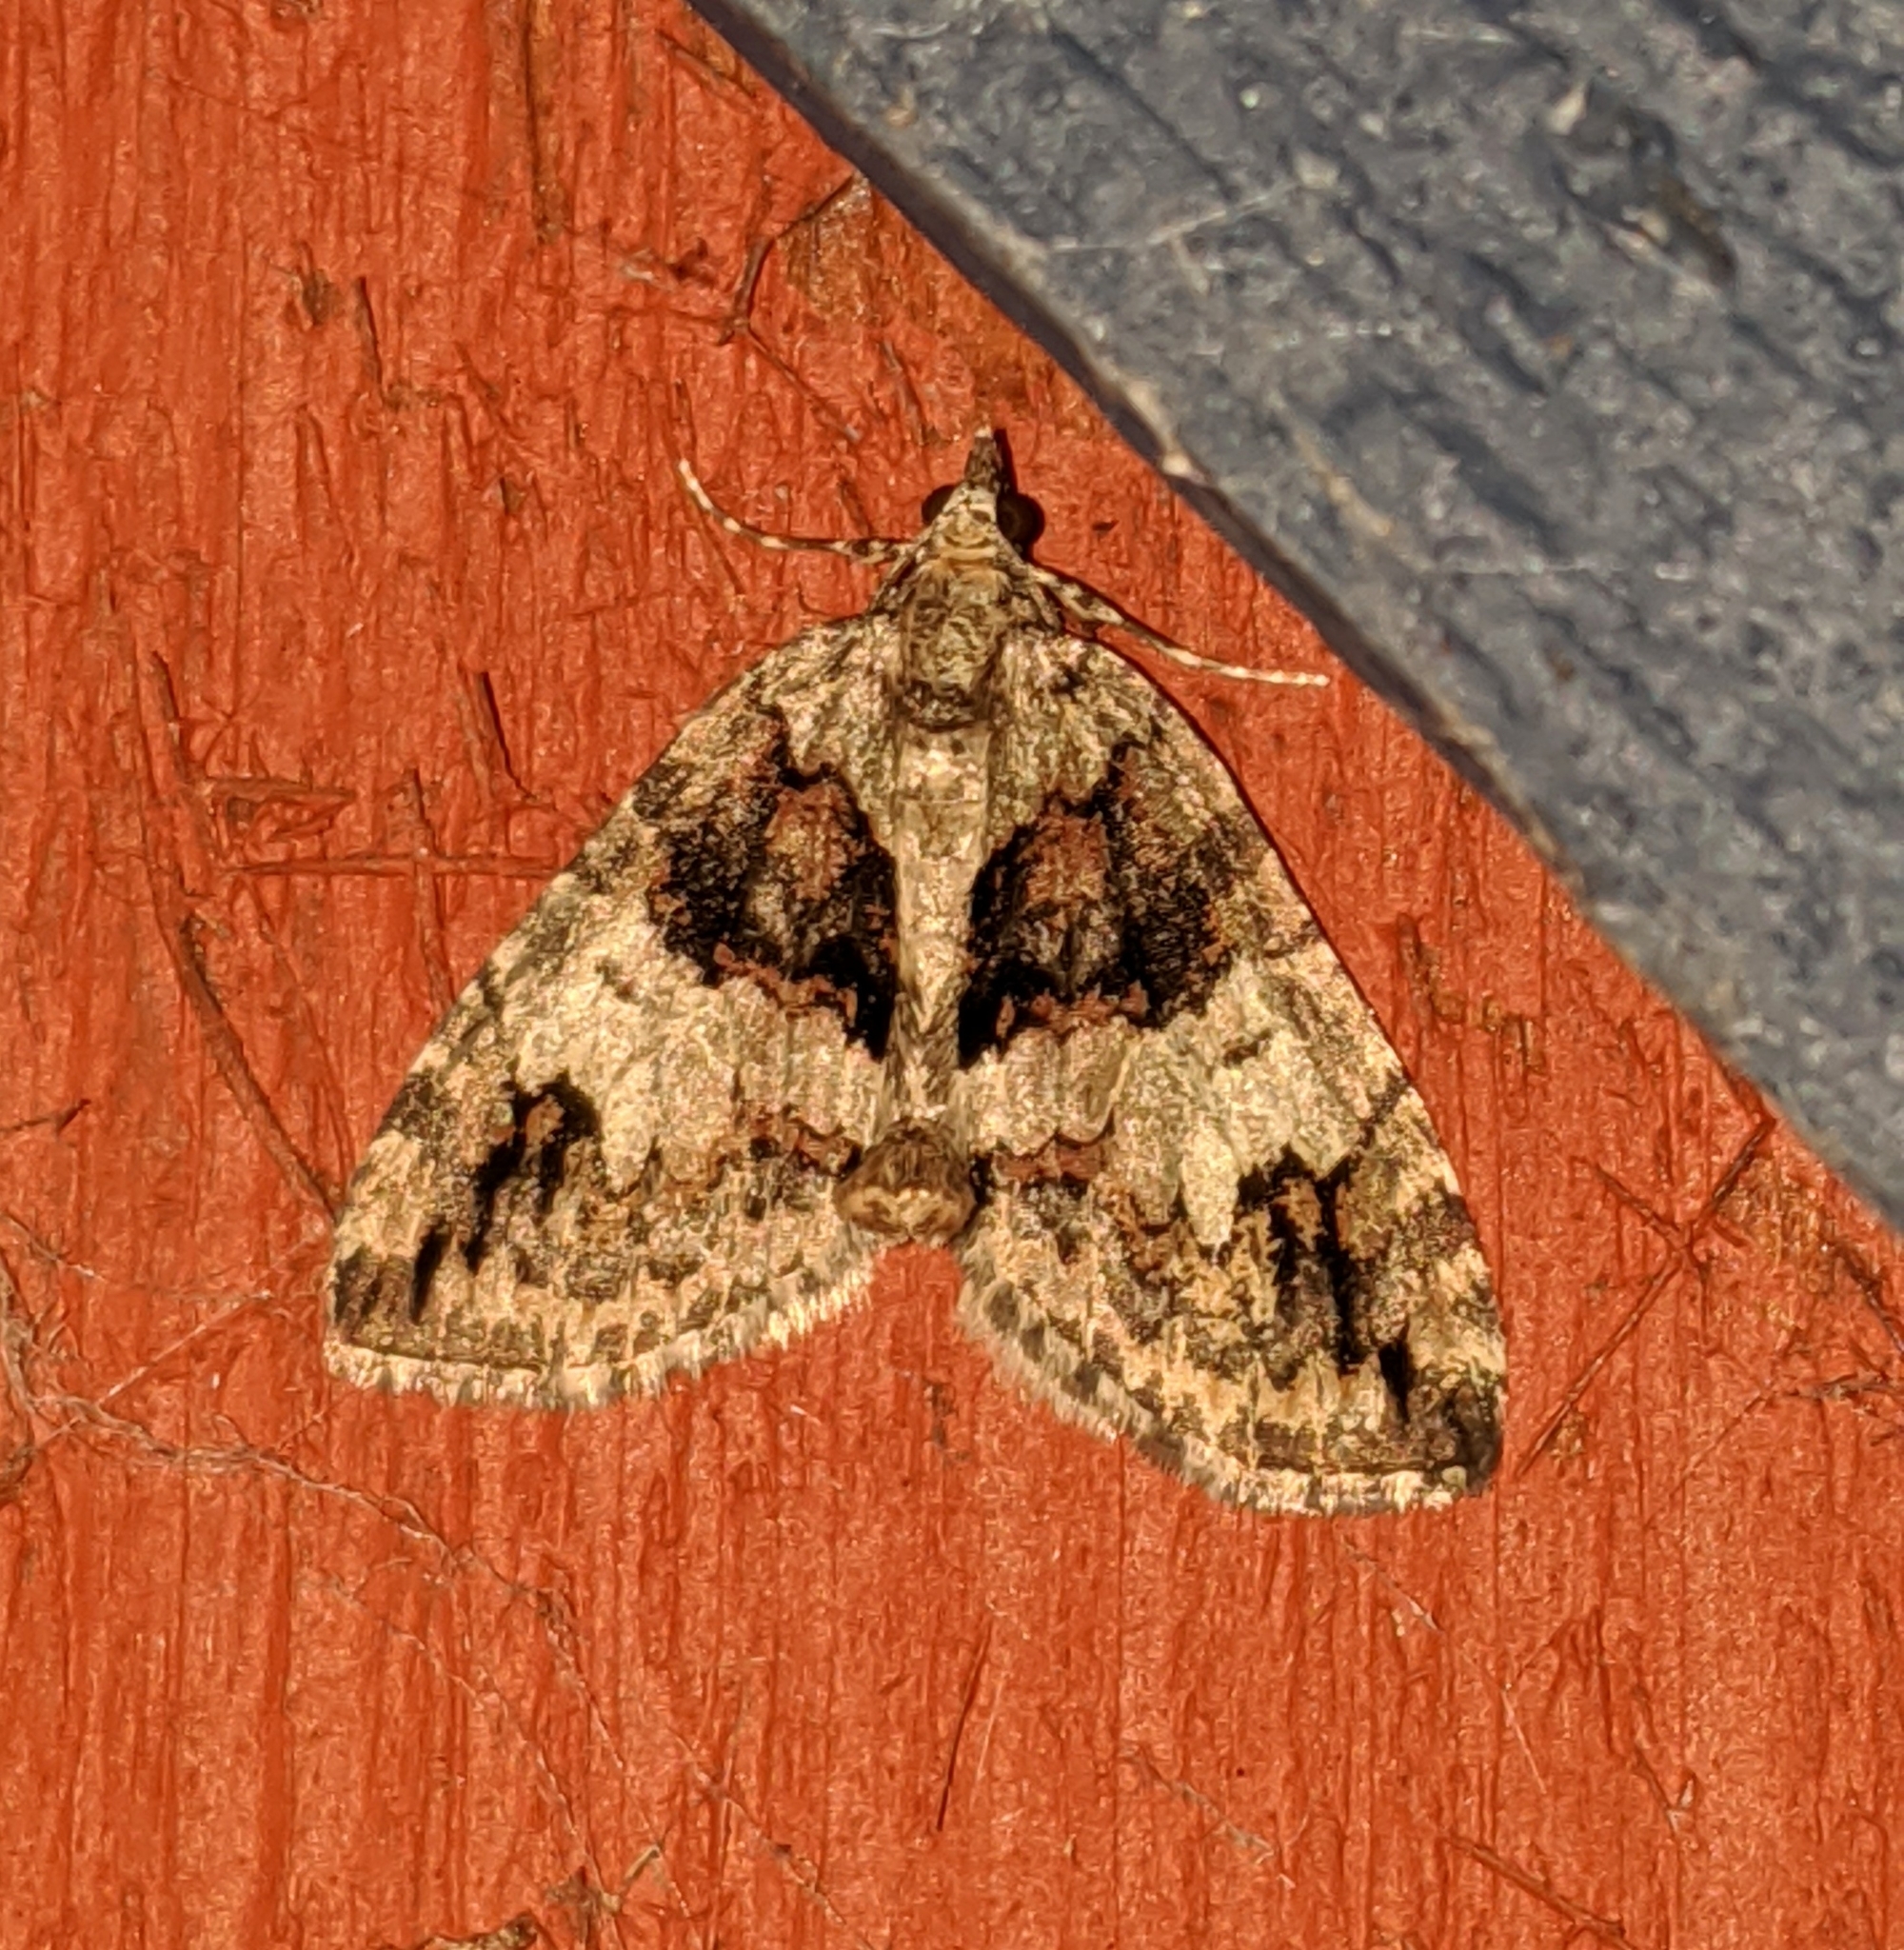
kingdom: Animalia
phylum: Arthropoda
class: Insecta
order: Lepidoptera
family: Geometridae
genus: Hydriomena
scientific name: Hydriomena californiata
